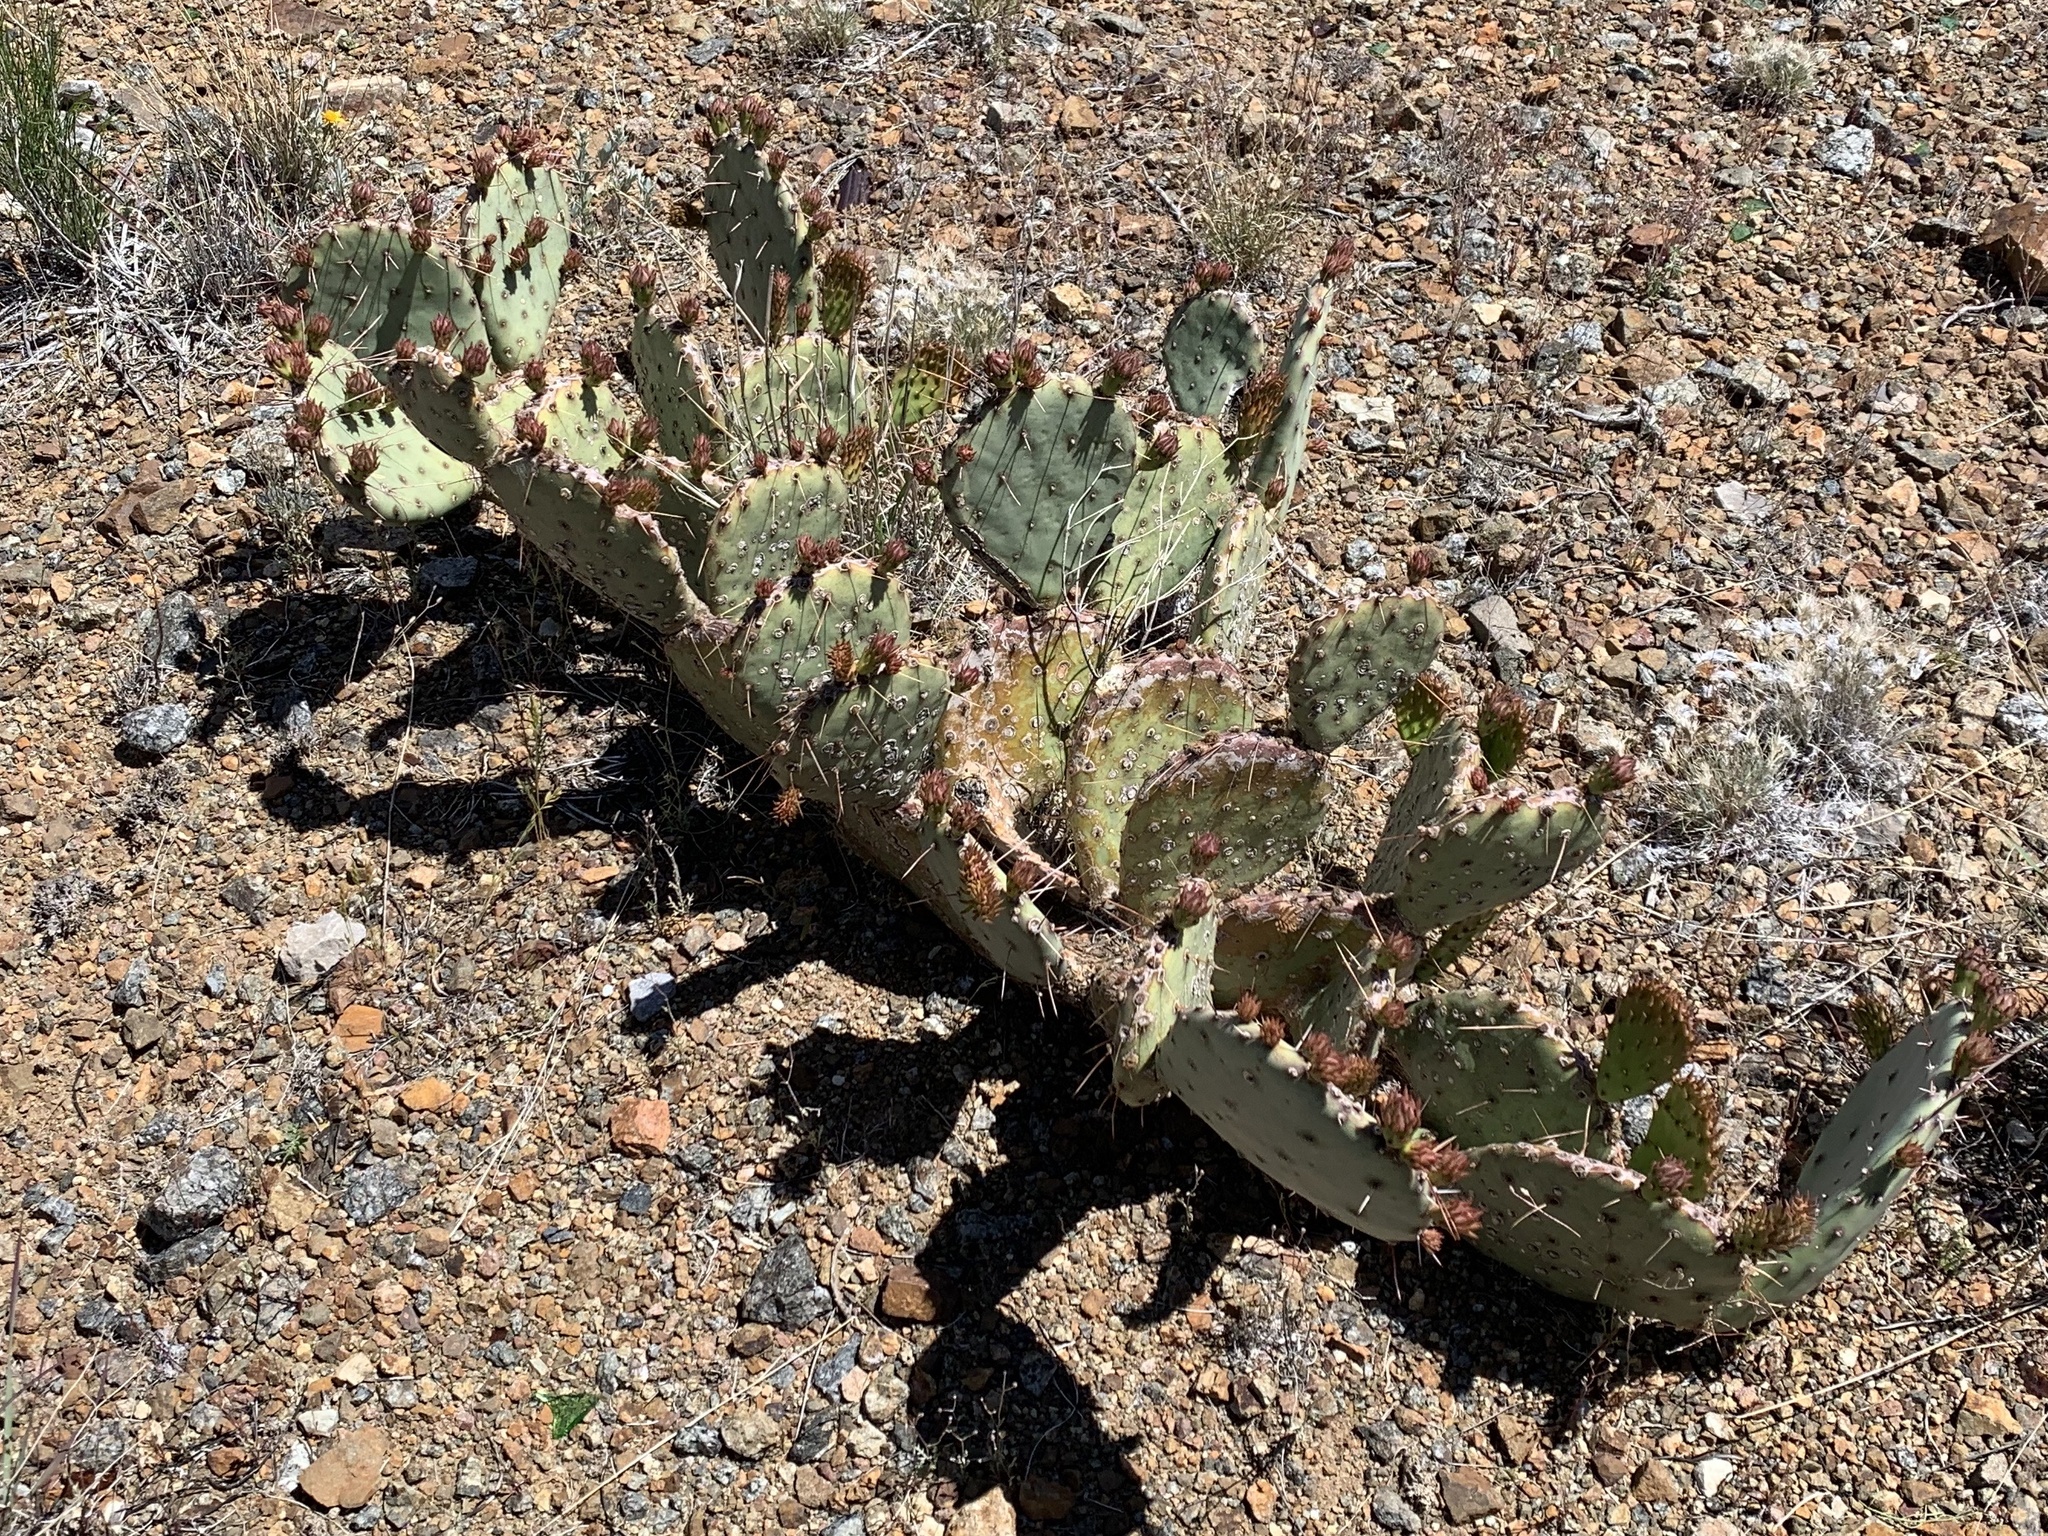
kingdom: Plantae
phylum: Tracheophyta
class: Magnoliopsida
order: Caryophyllales
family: Cactaceae
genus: Opuntia
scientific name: Opuntia phaeacantha
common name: New mexico prickly-pear
